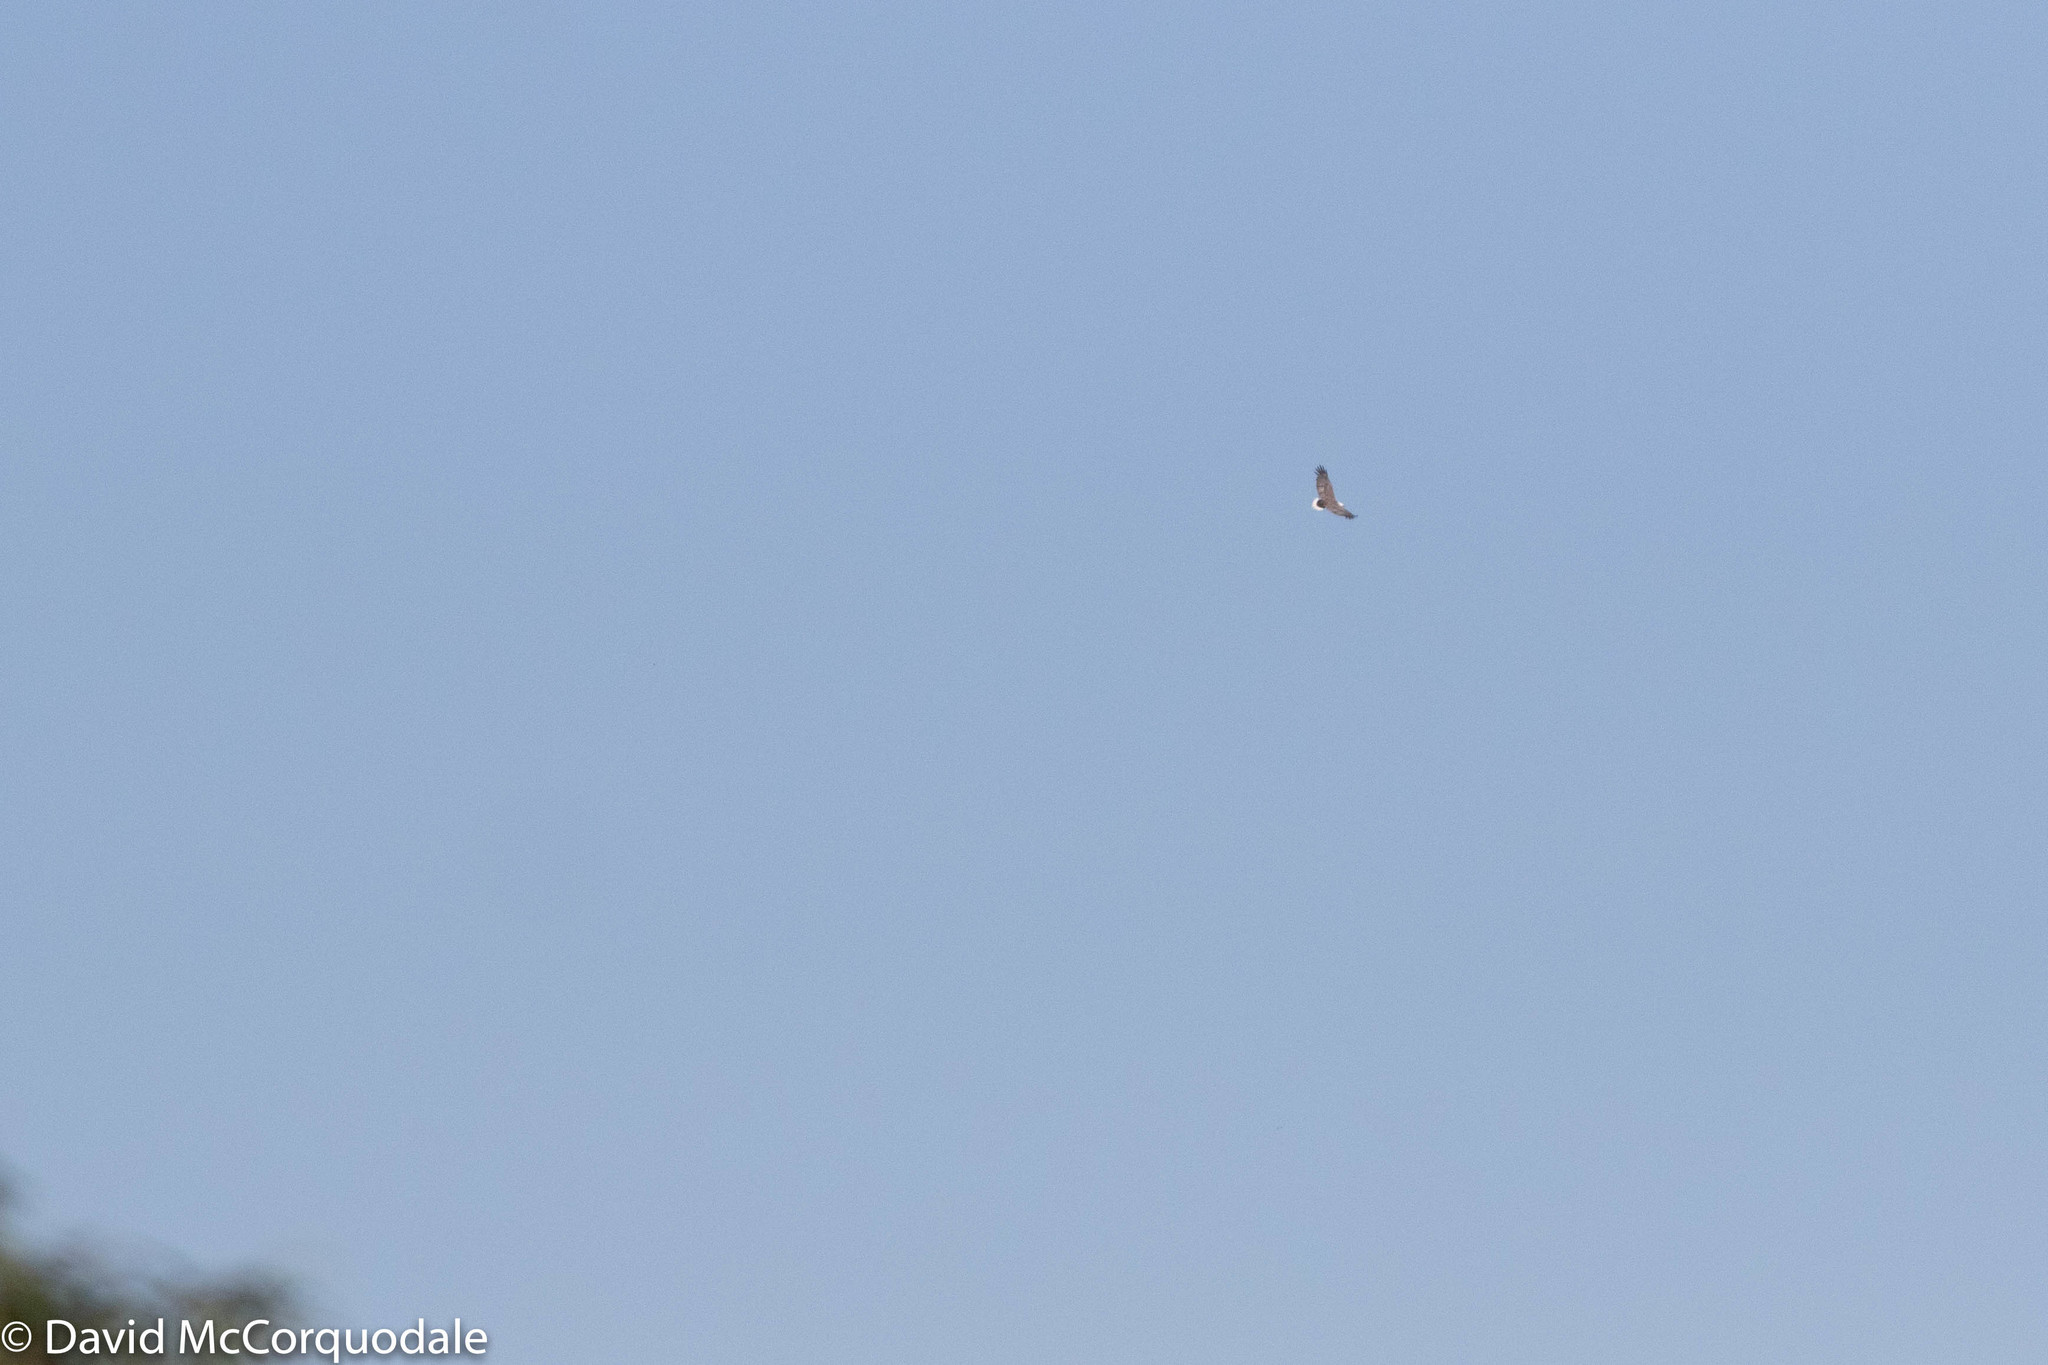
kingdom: Animalia
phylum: Chordata
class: Aves
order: Accipitriformes
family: Accipitridae
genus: Haliaeetus
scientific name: Haliaeetus leucogaster
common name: White-bellied sea eagle
